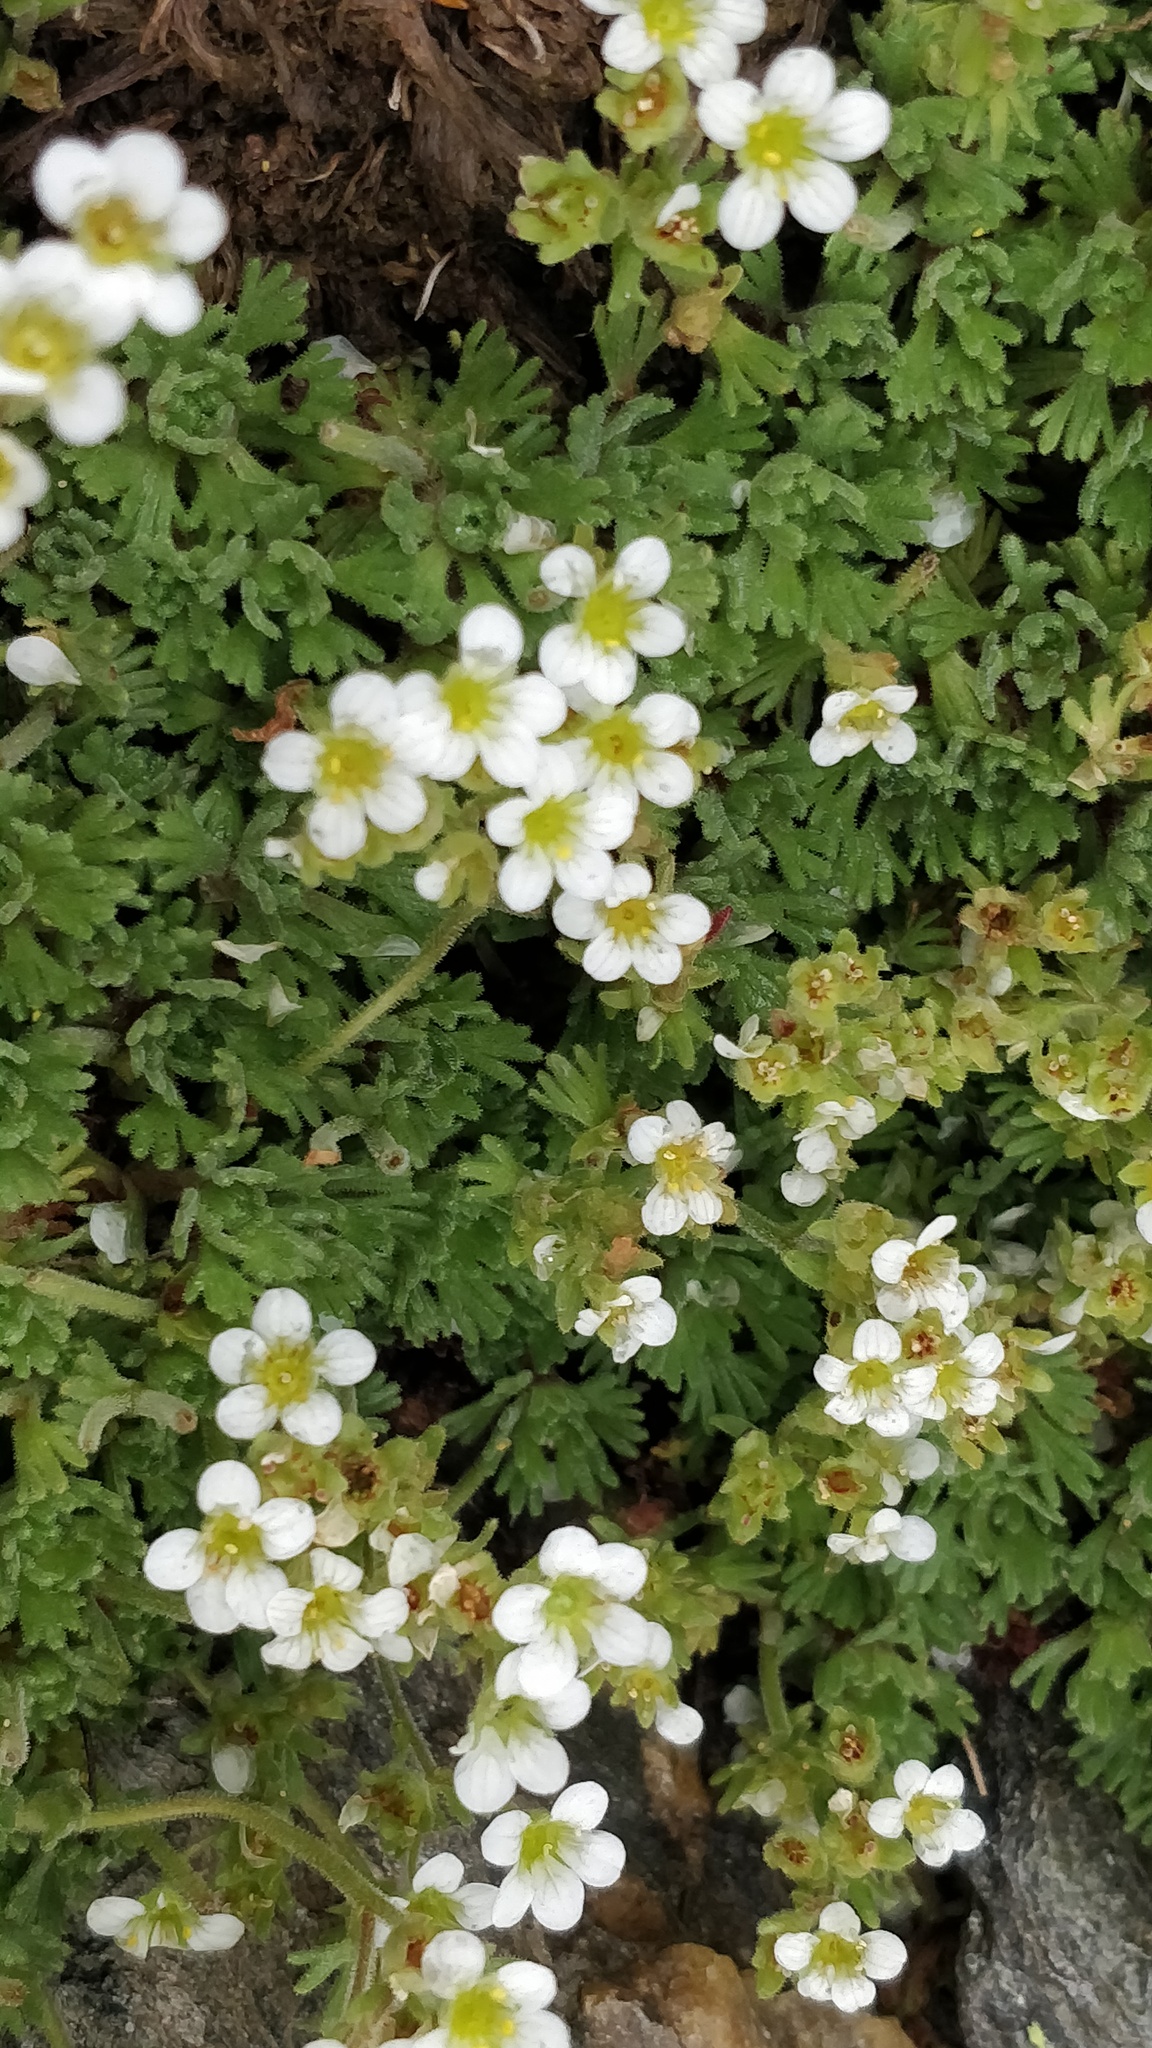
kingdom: Plantae
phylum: Tracheophyta
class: Magnoliopsida
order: Saxifragales
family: Saxifragaceae
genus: Saxifraga
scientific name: Saxifraga pubescens
